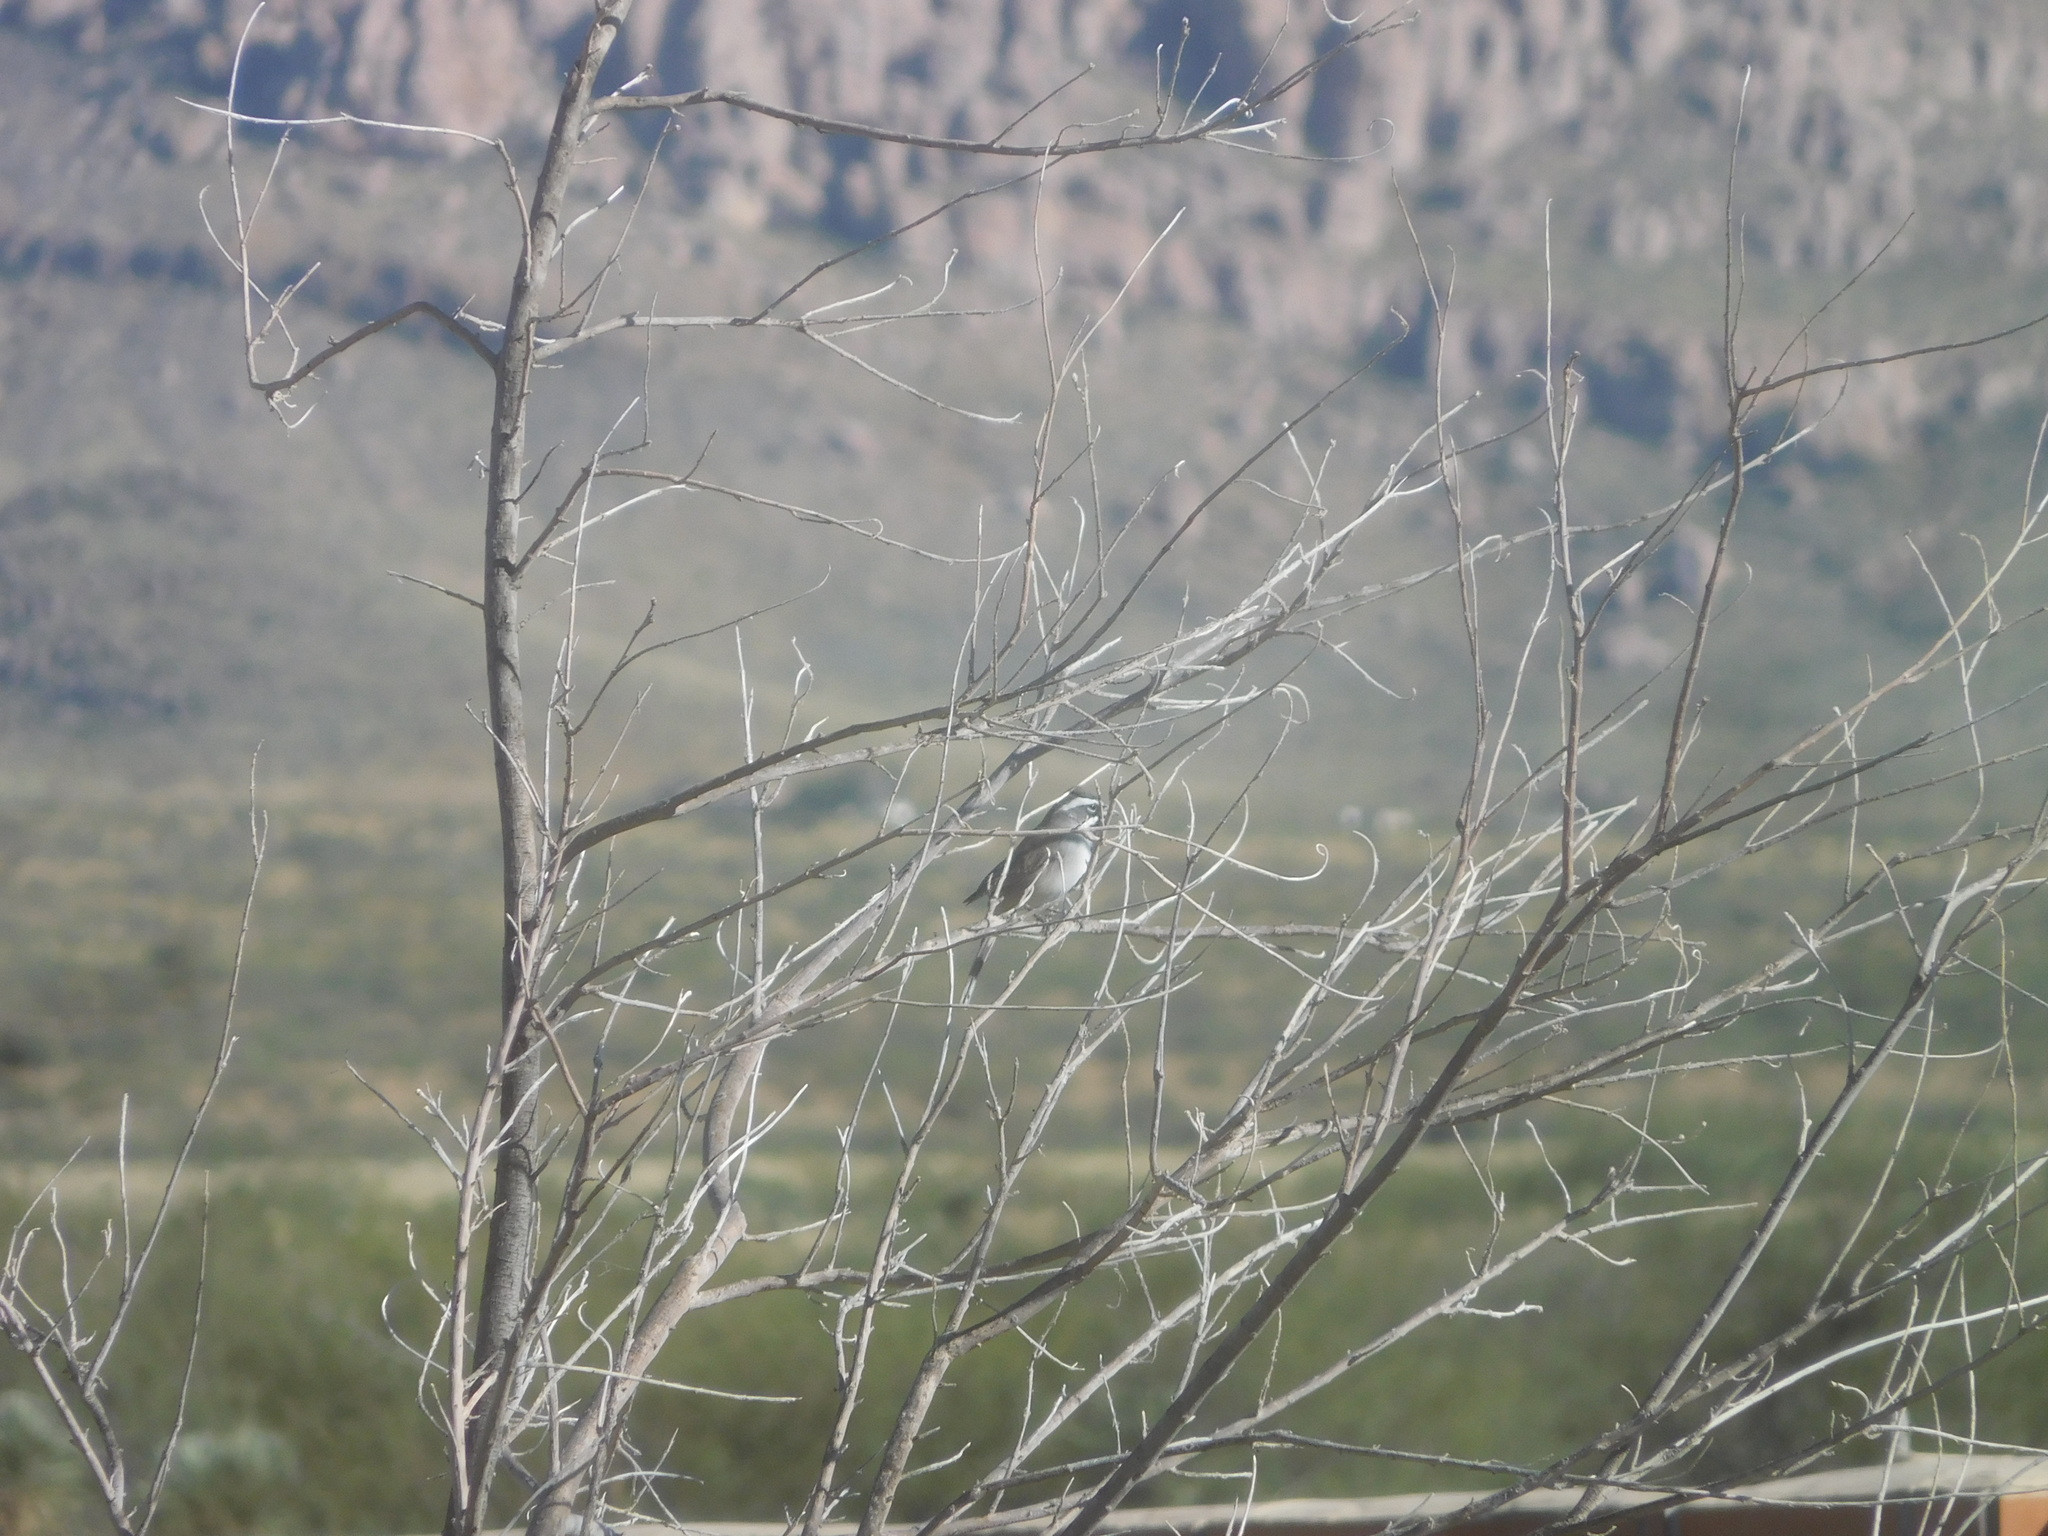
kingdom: Animalia
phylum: Chordata
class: Aves
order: Passeriformes
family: Passerellidae
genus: Amphispiza
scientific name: Amphispiza bilineata
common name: Black-throated sparrow
